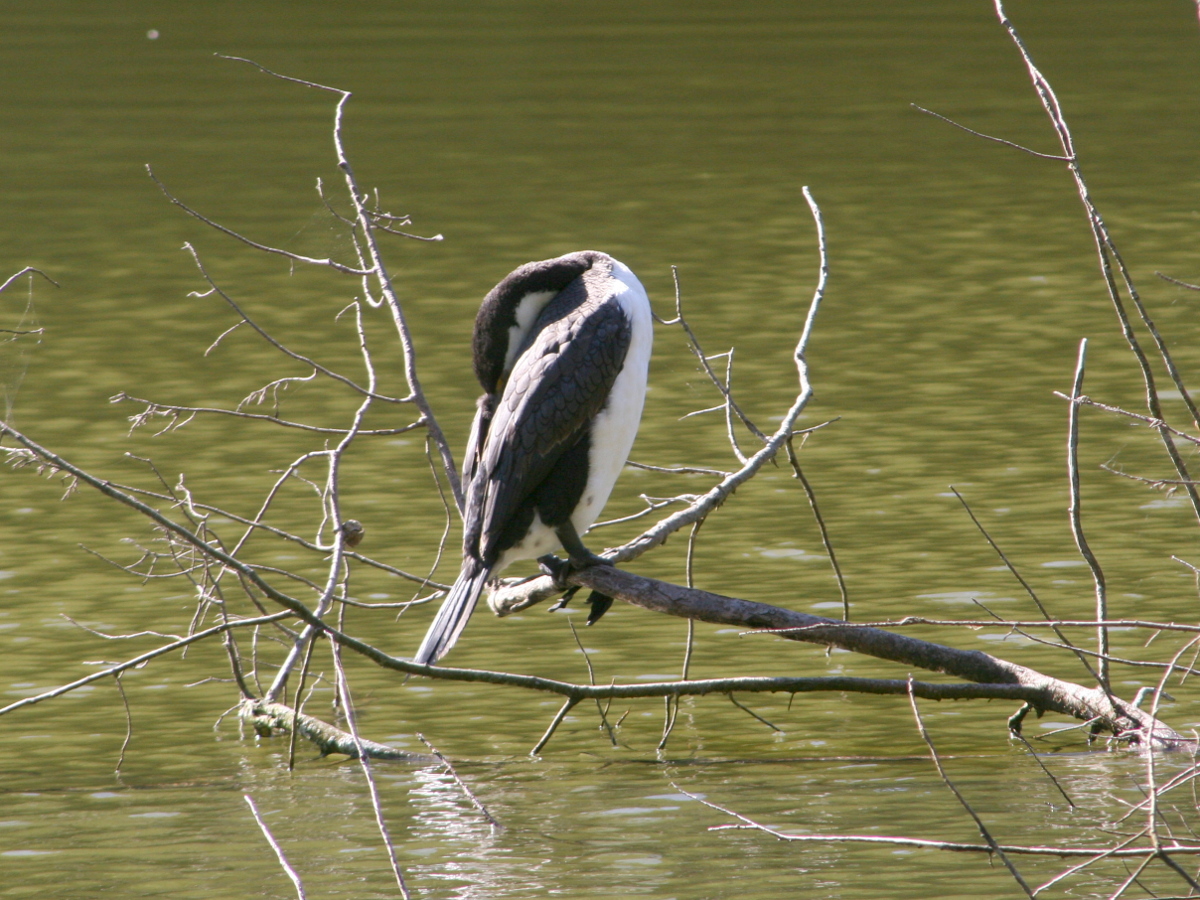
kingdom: Animalia
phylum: Chordata
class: Aves
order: Suliformes
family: Phalacrocoracidae
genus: Phalacrocorax
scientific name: Phalacrocorax varius
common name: Pied cormorant
